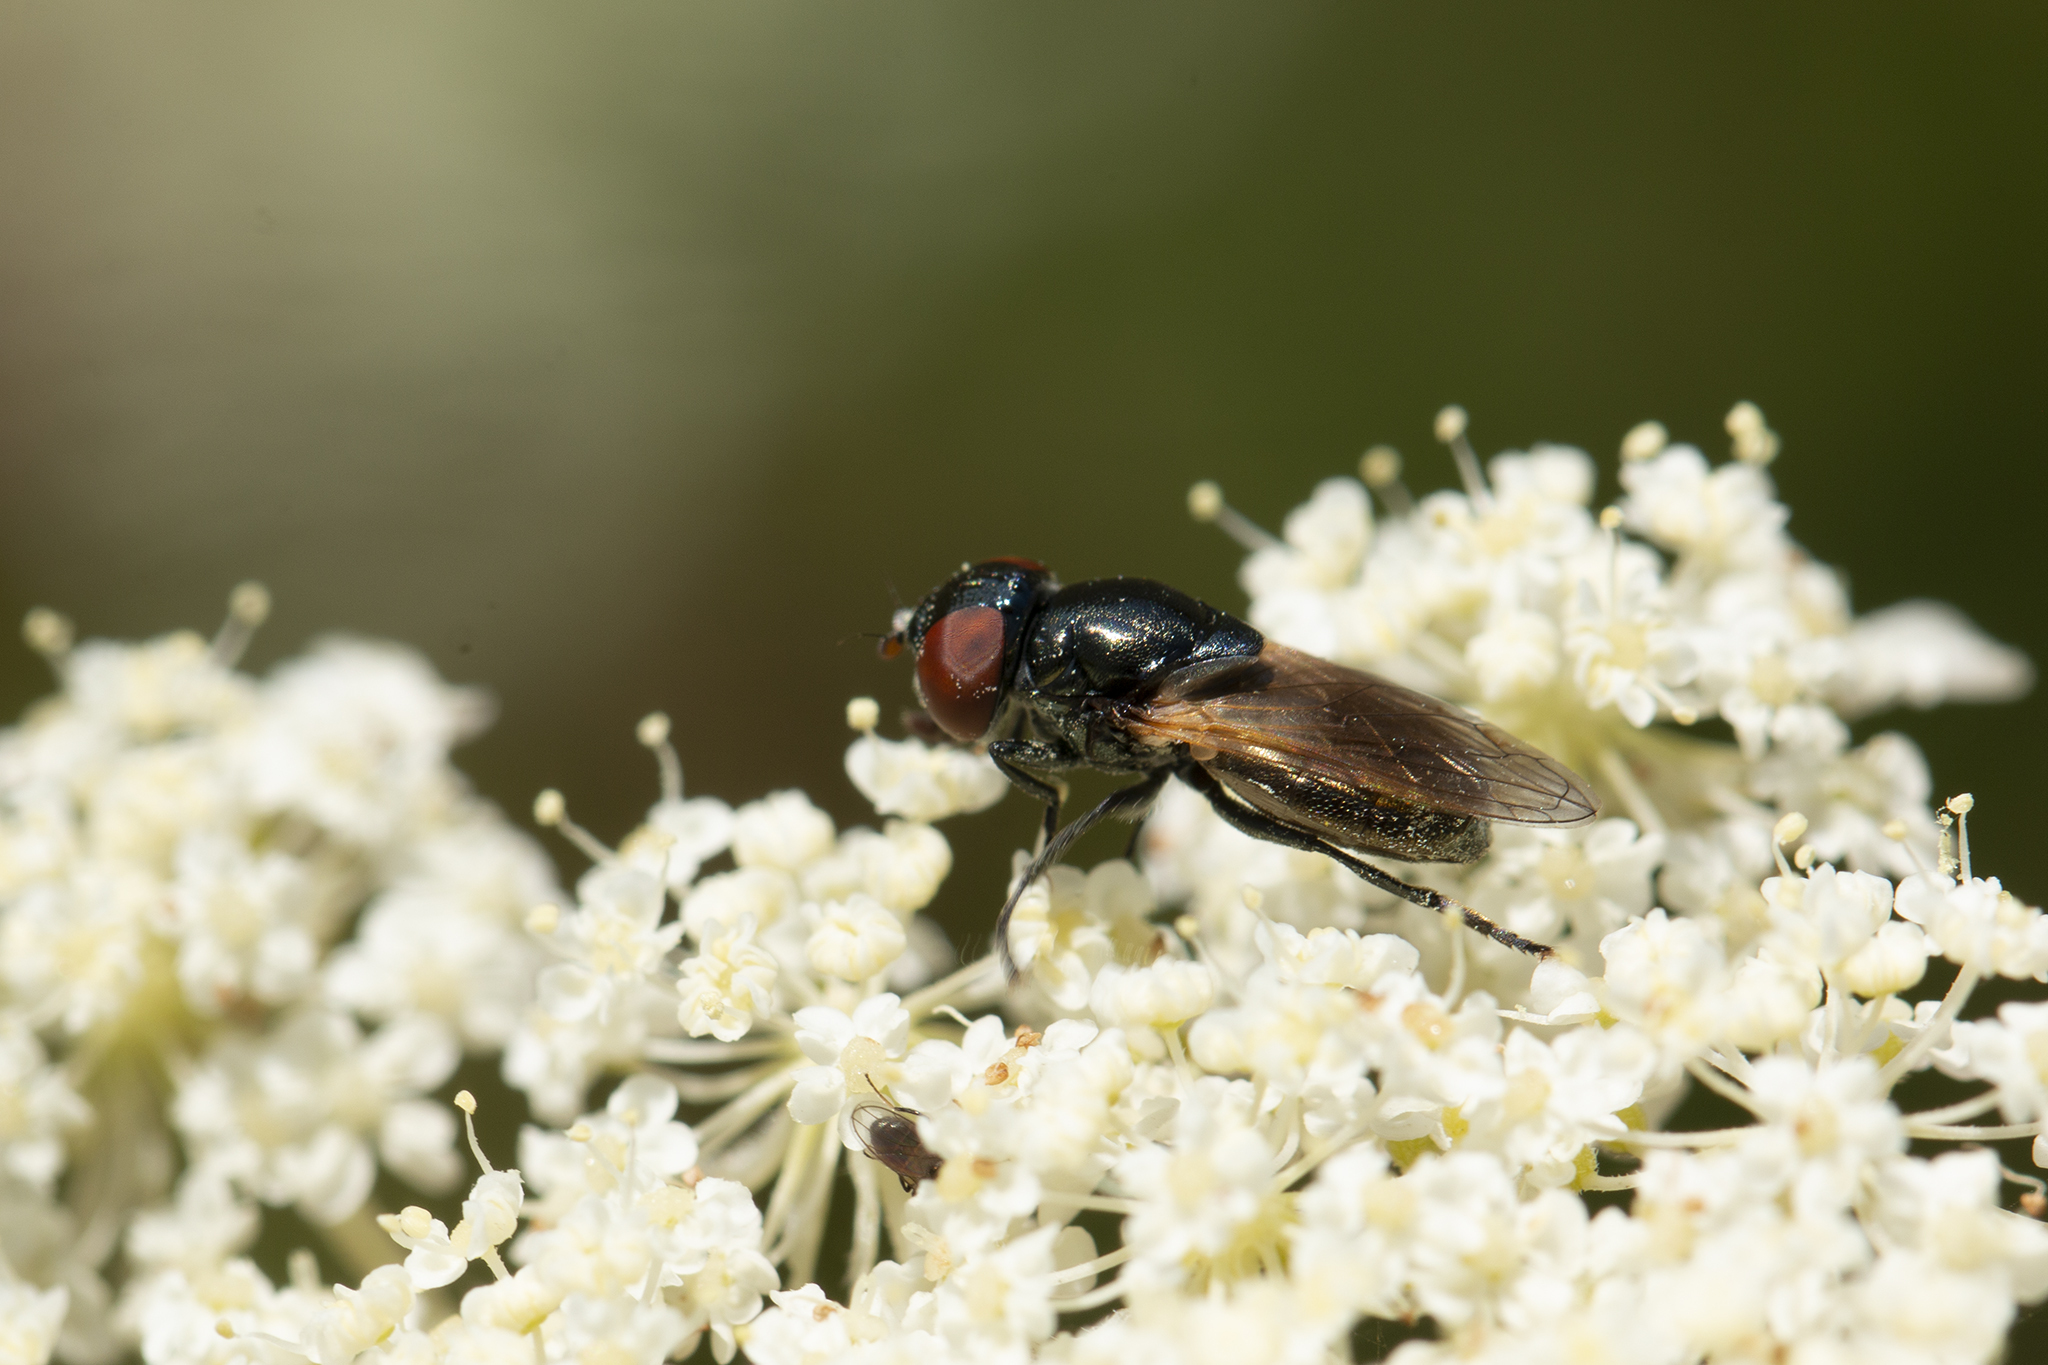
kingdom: Animalia
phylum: Arthropoda
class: Insecta
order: Diptera
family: Syrphidae
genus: Chrysogaster
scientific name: Chrysogaster coemiteriorum
